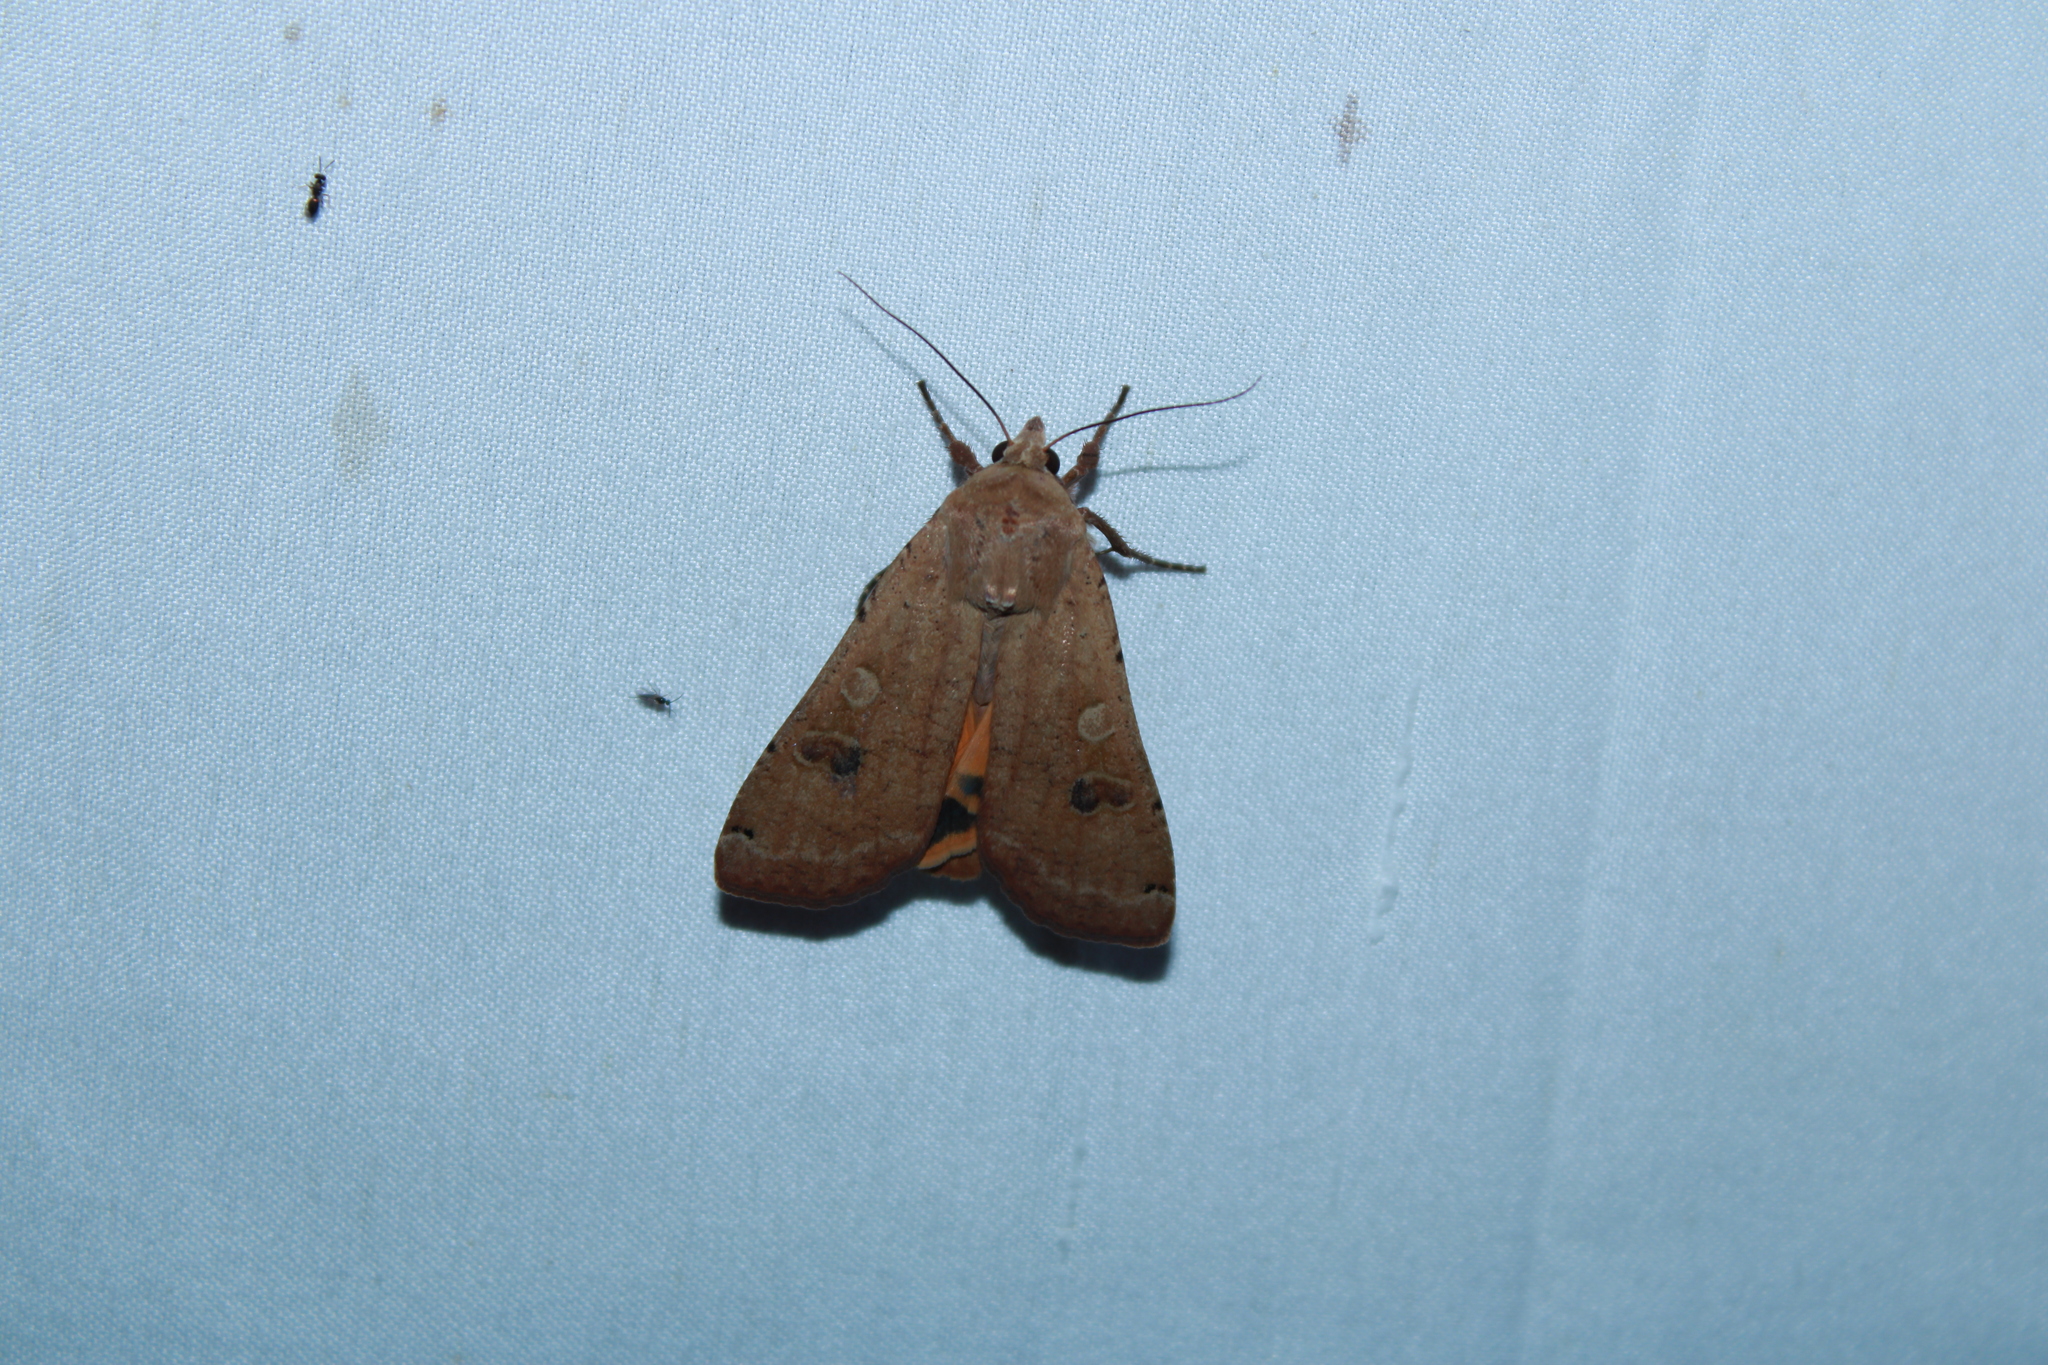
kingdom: Animalia
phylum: Arthropoda
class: Insecta
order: Lepidoptera
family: Noctuidae
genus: Noctua
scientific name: Noctua pronuba
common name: Large yellow underwing
